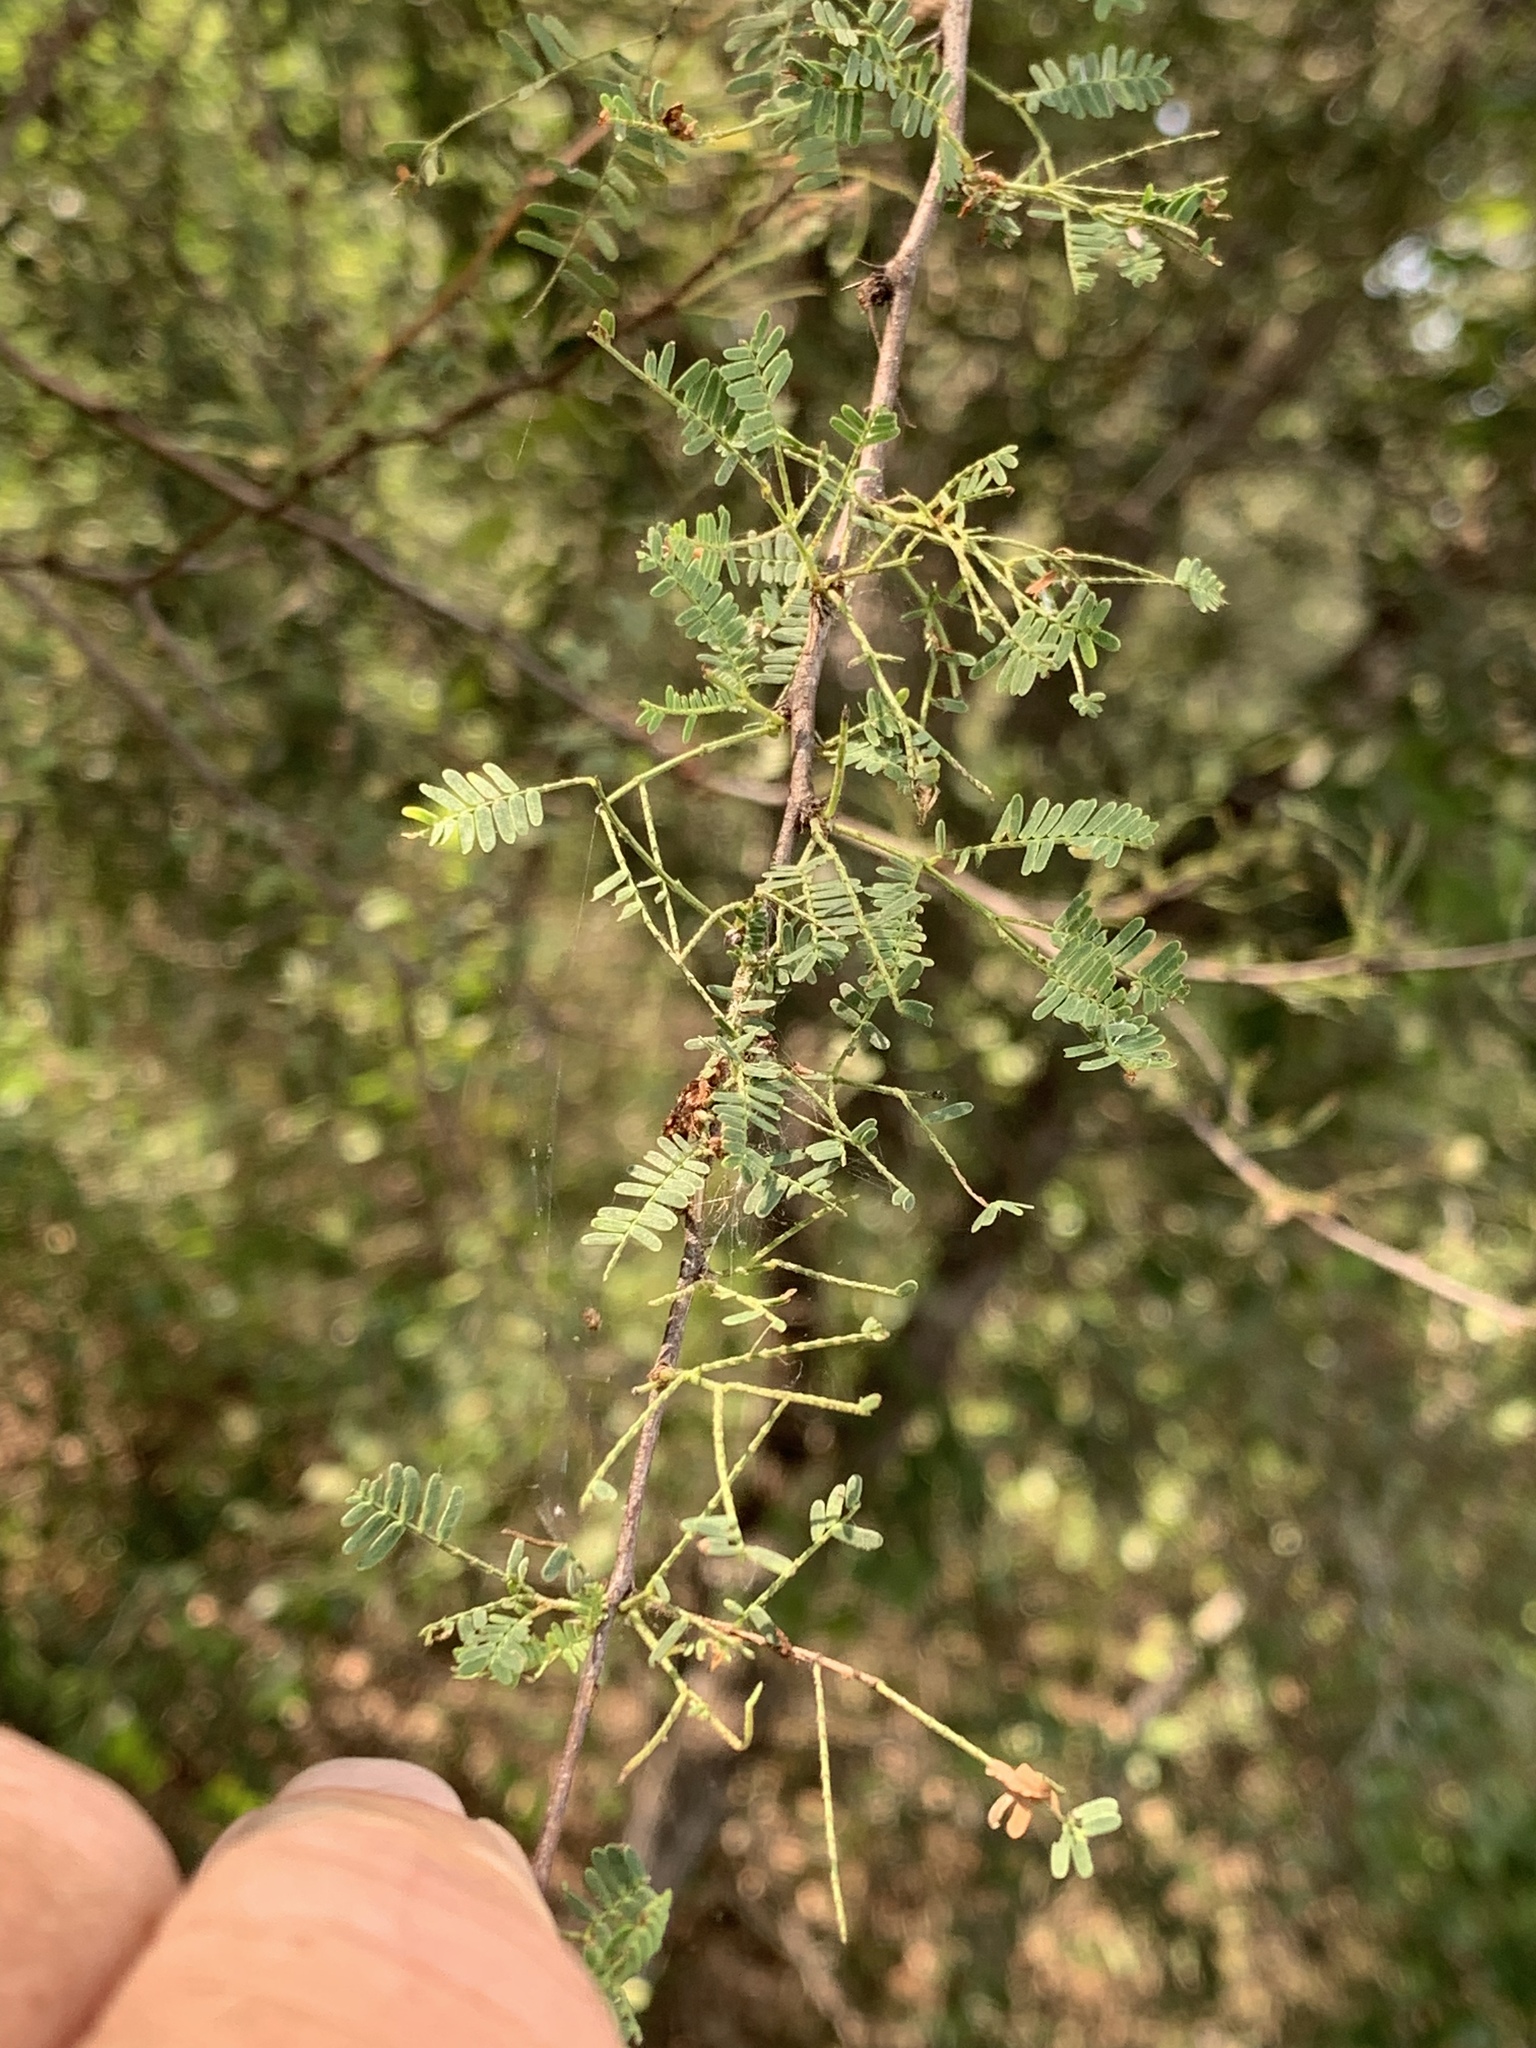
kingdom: Plantae
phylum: Tracheophyta
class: Magnoliopsida
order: Fabales
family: Fabaceae
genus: Vachellia
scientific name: Vachellia farnesiana
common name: Sweet acacia
